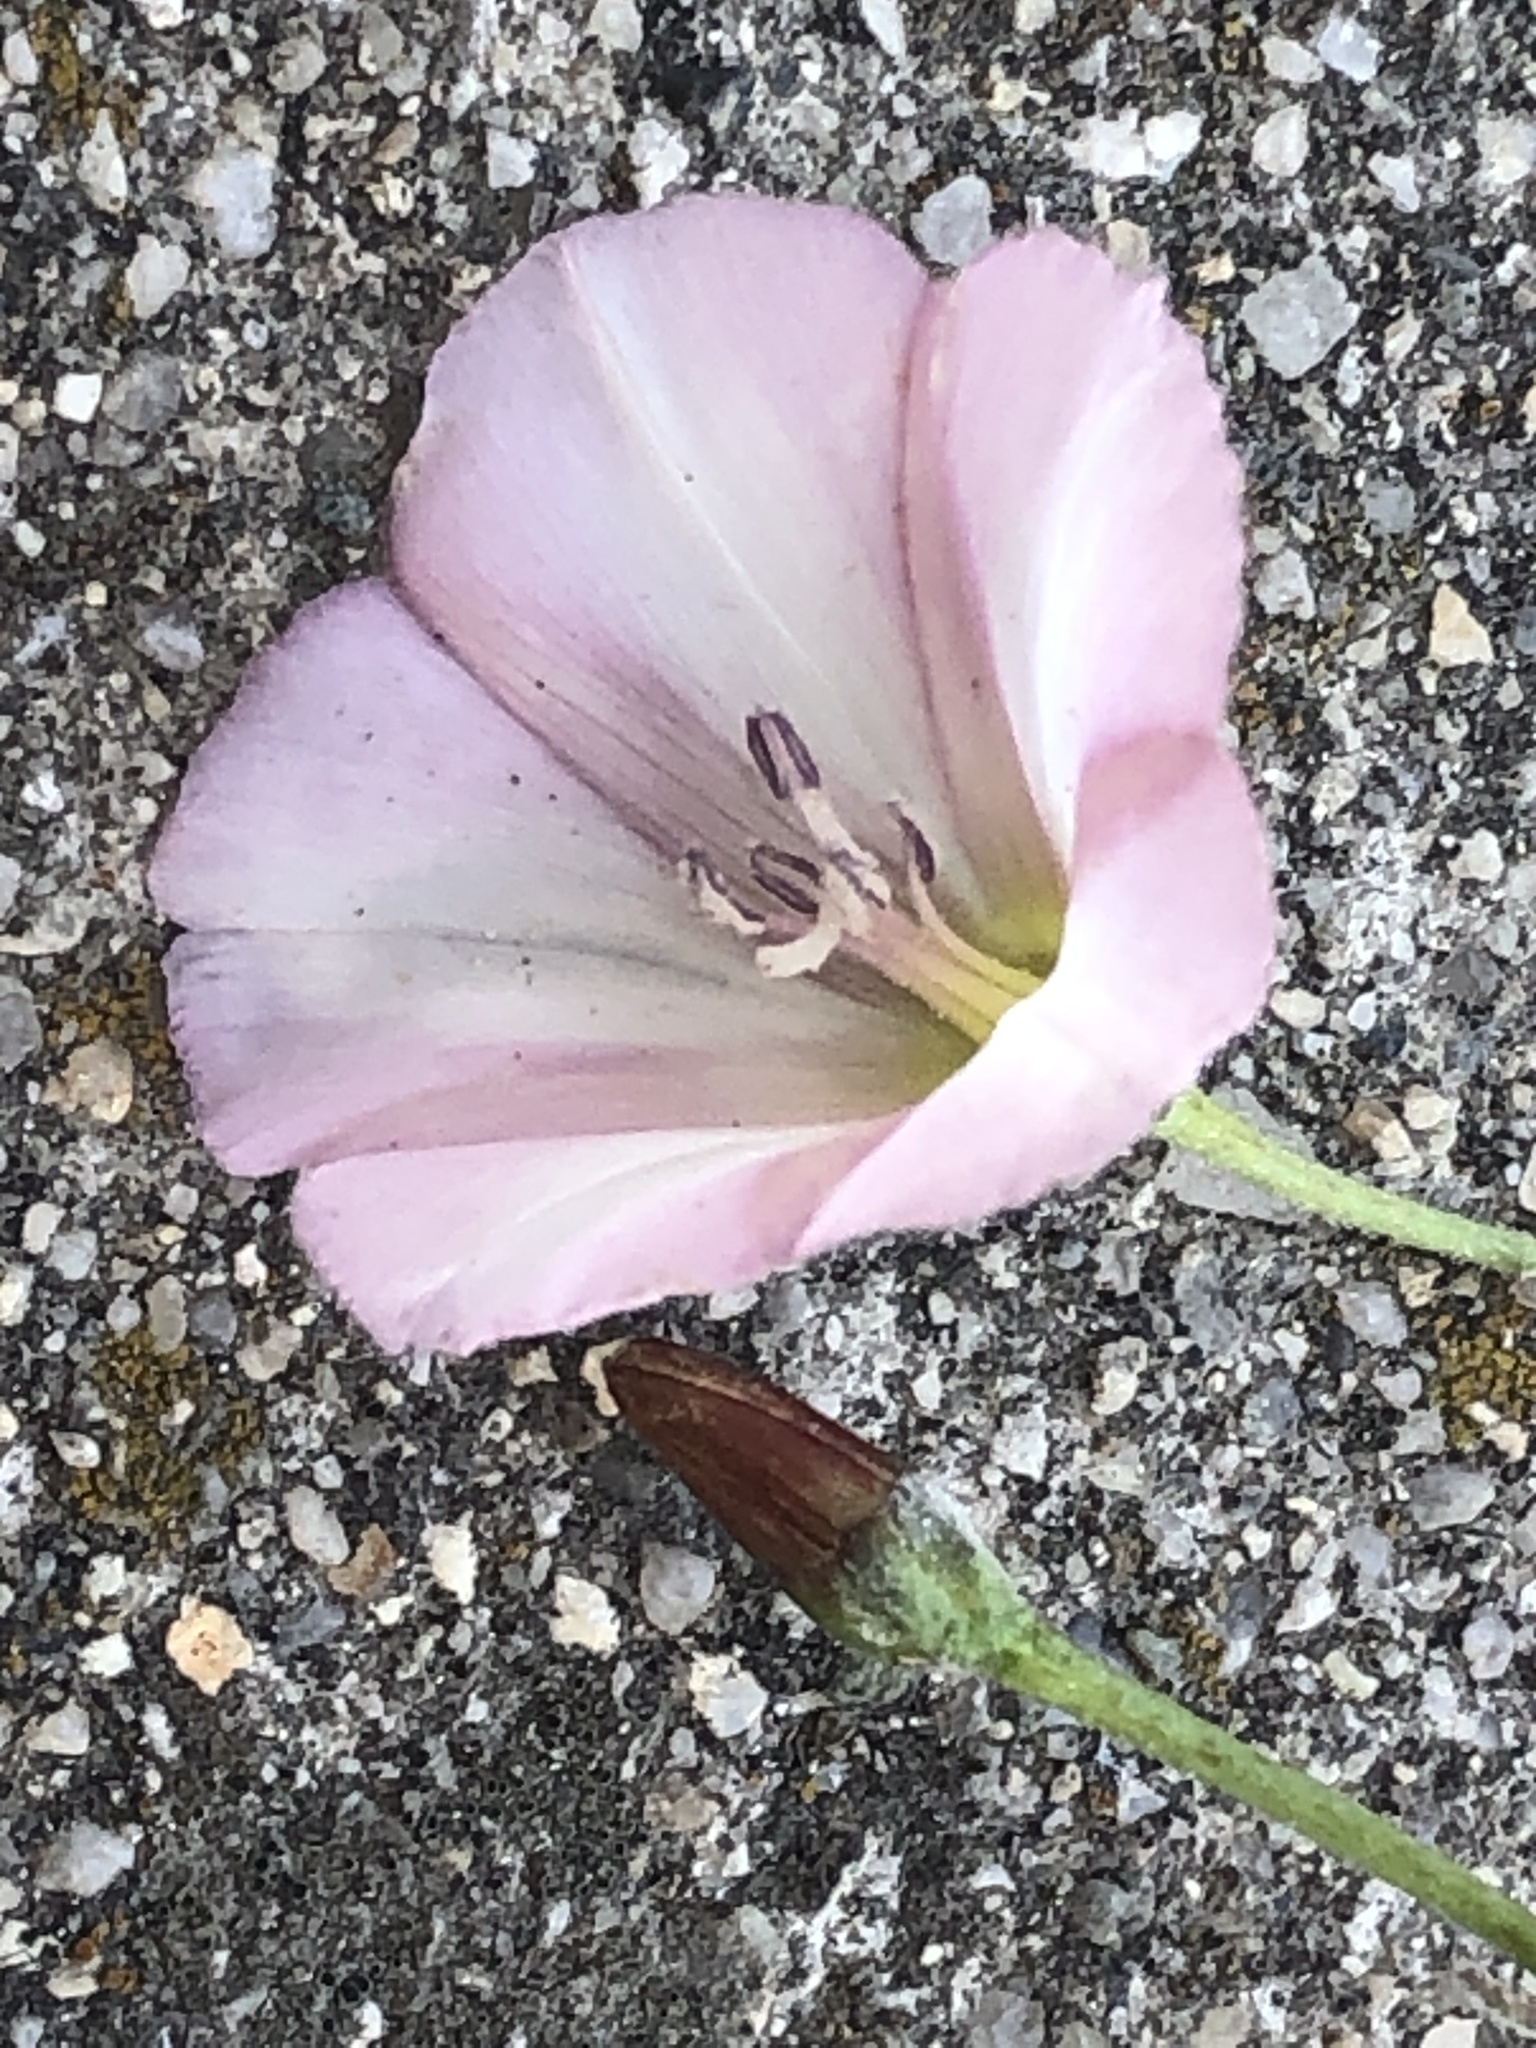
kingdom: Plantae
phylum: Tracheophyta
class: Magnoliopsida
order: Solanales
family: Convolvulaceae
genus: Convolvulus
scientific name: Convolvulus arvensis
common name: Field bindweed
